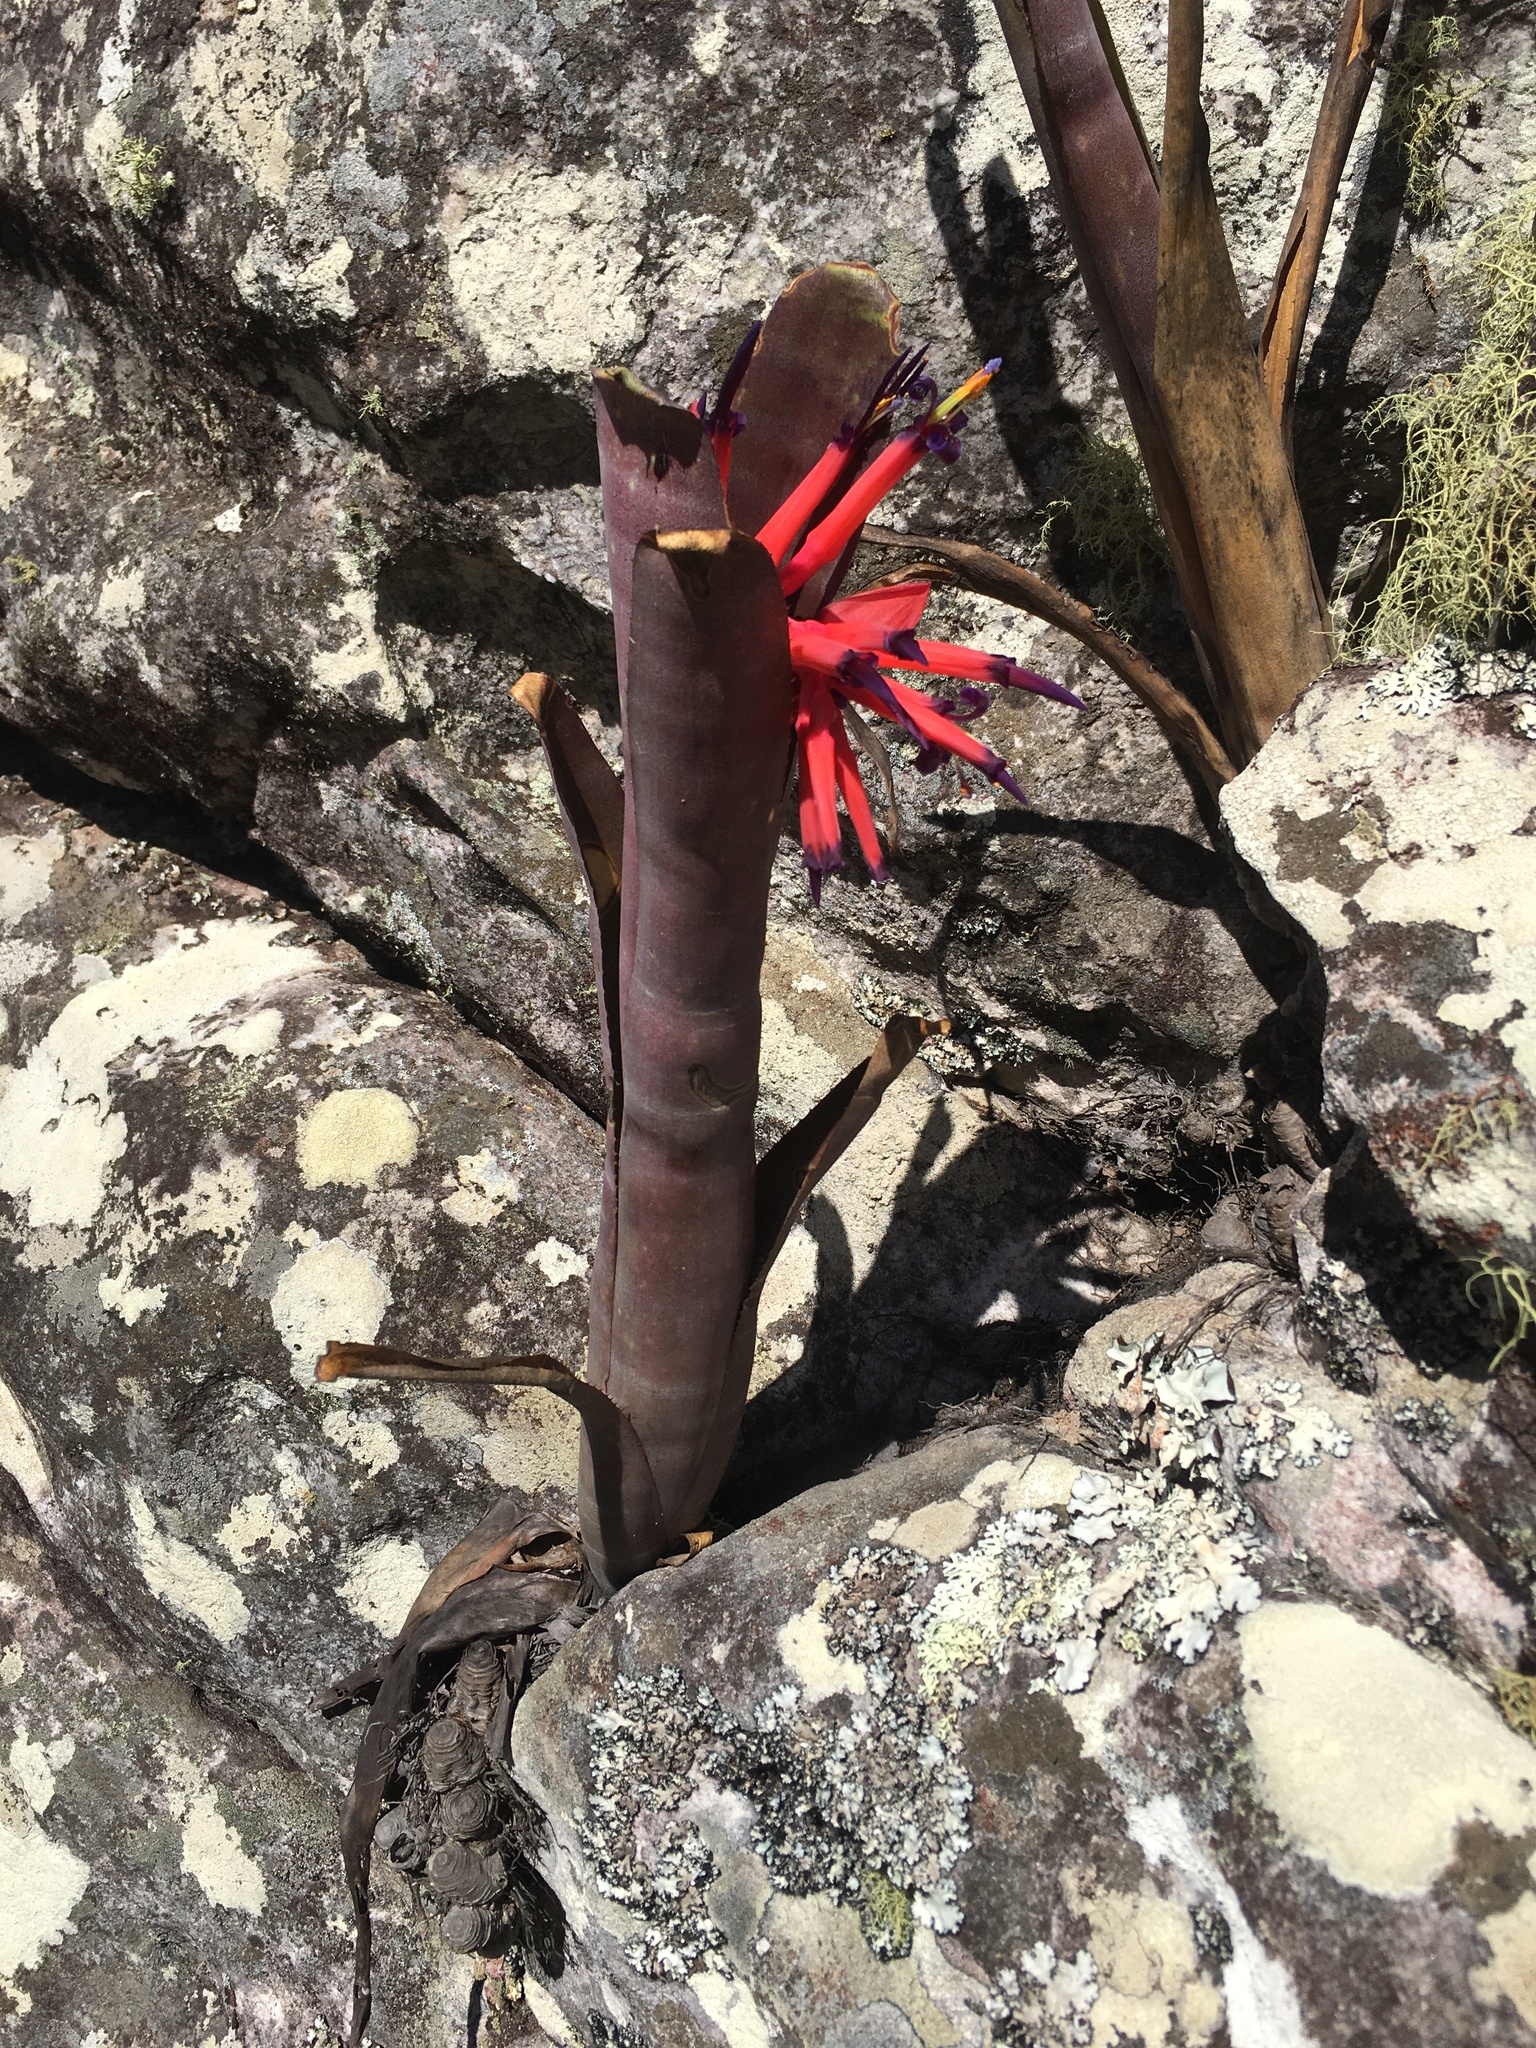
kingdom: Plantae
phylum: Tracheophyta
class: Liliopsida
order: Poales
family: Bromeliaceae
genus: Billbergia
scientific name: Billbergia vittata
